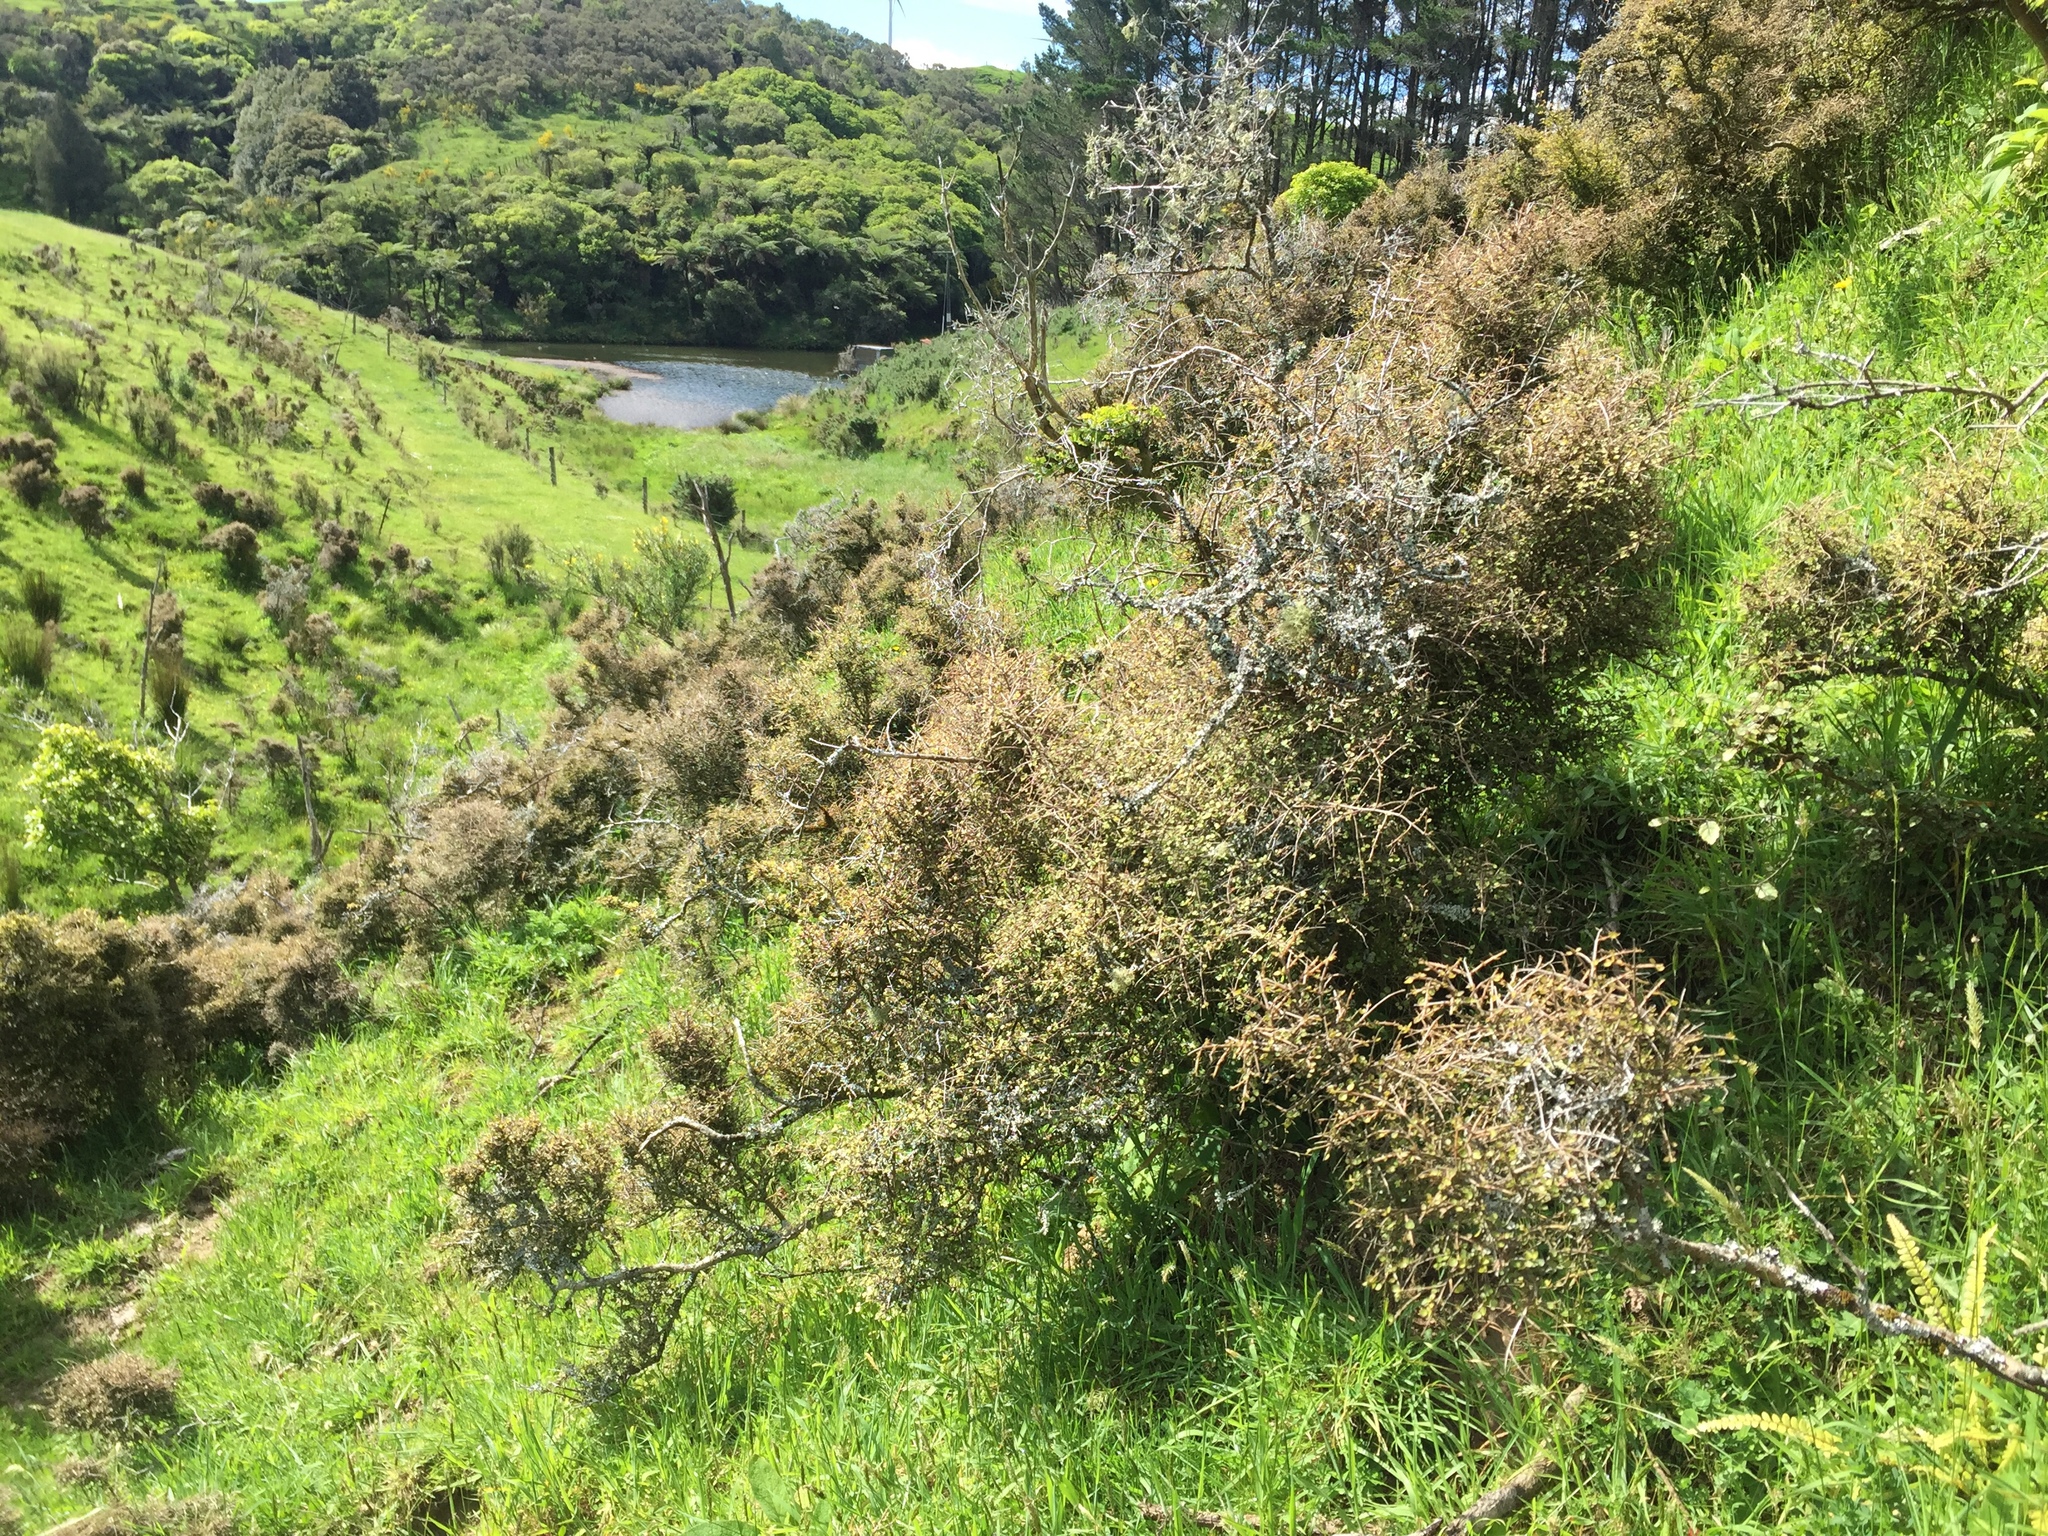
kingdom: Plantae
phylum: Tracheophyta
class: Magnoliopsida
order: Gentianales
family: Rubiaceae
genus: Coprosma
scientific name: Coprosma rhamnoides
